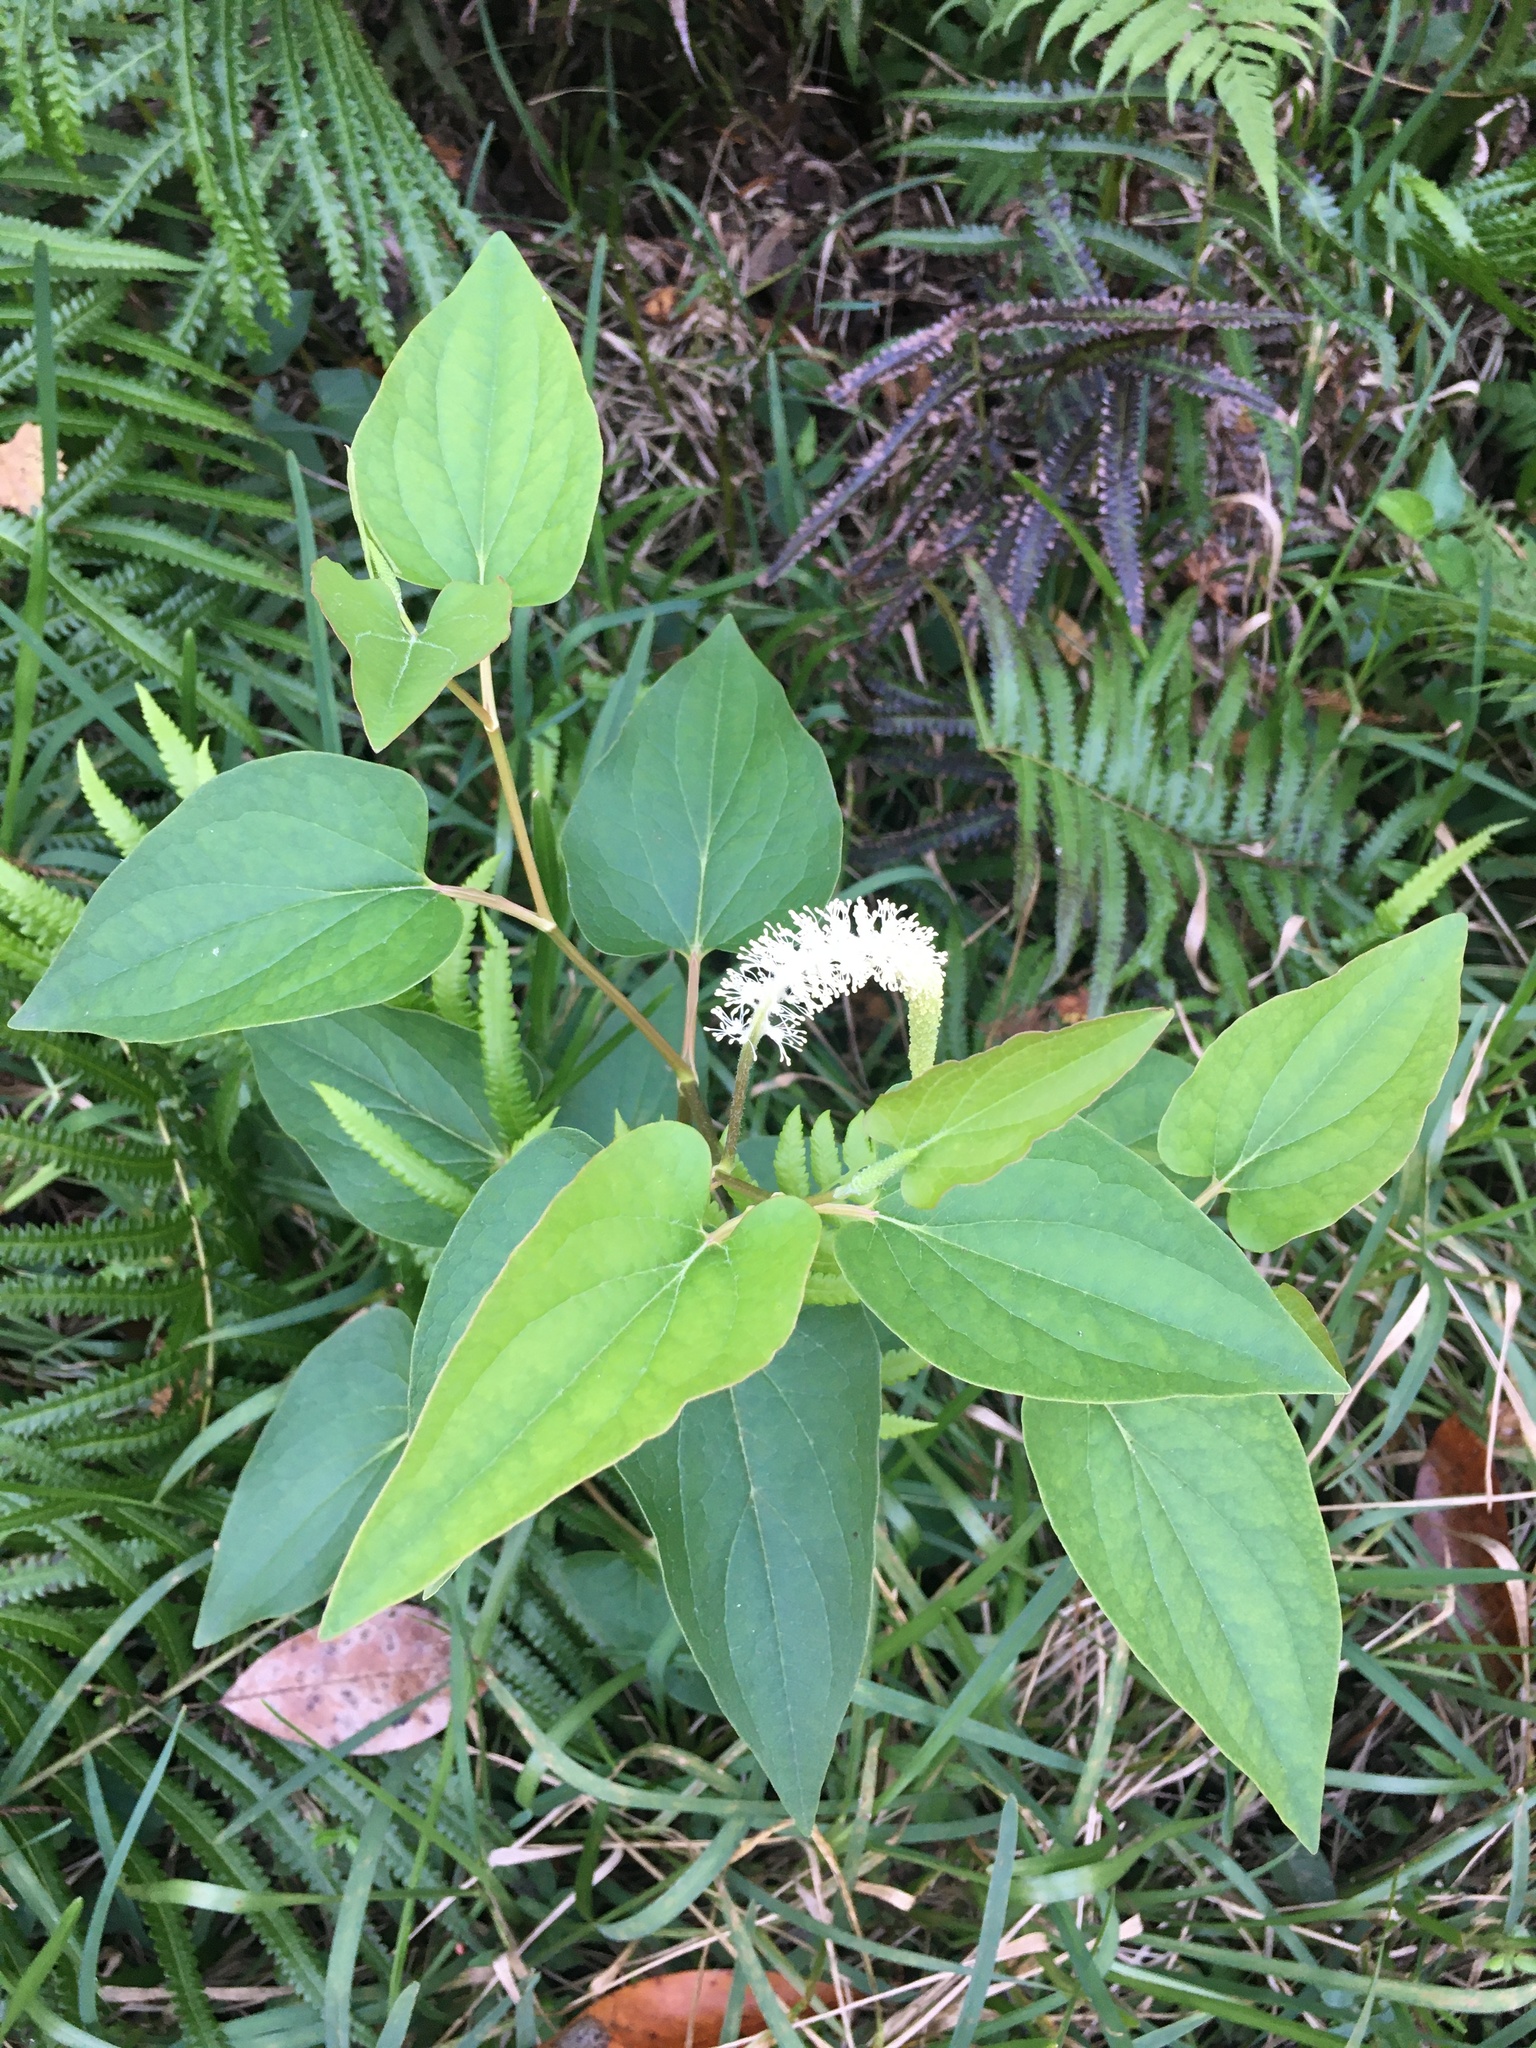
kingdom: Plantae
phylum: Tracheophyta
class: Magnoliopsida
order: Piperales
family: Saururaceae
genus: Saururus
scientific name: Saururus cernuus
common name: Lizard's-tail
